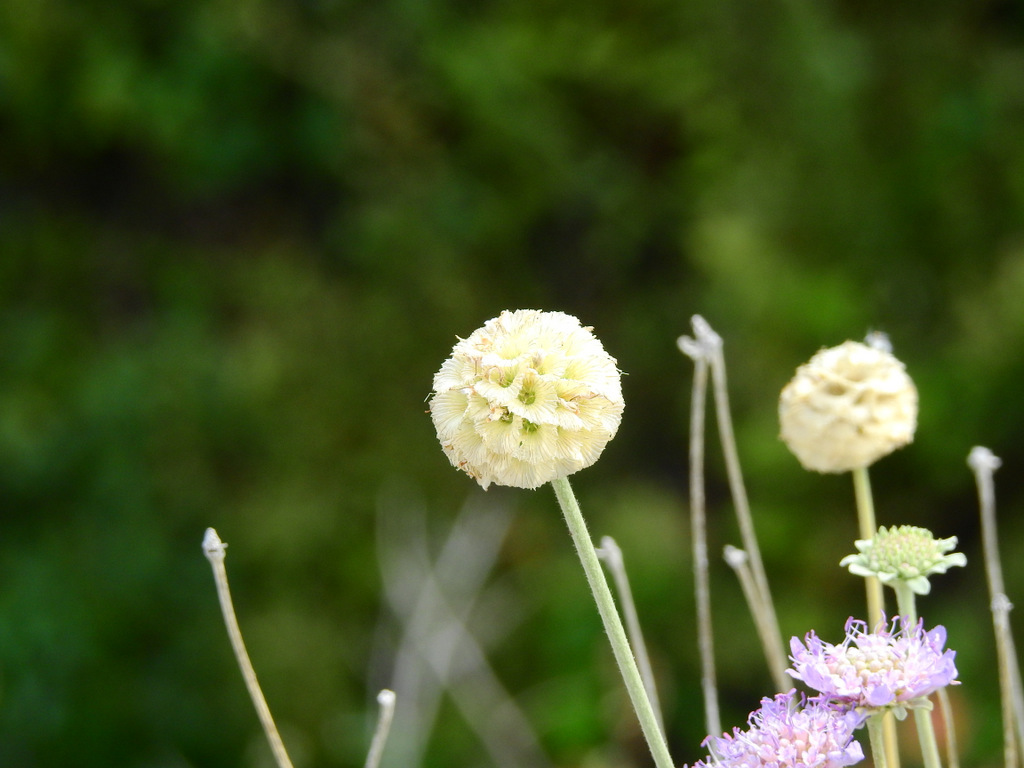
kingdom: Plantae
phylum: Tracheophyta
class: Magnoliopsida
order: Dipsacales
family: Caprifoliaceae
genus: Lomelosia
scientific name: Lomelosia cretica
